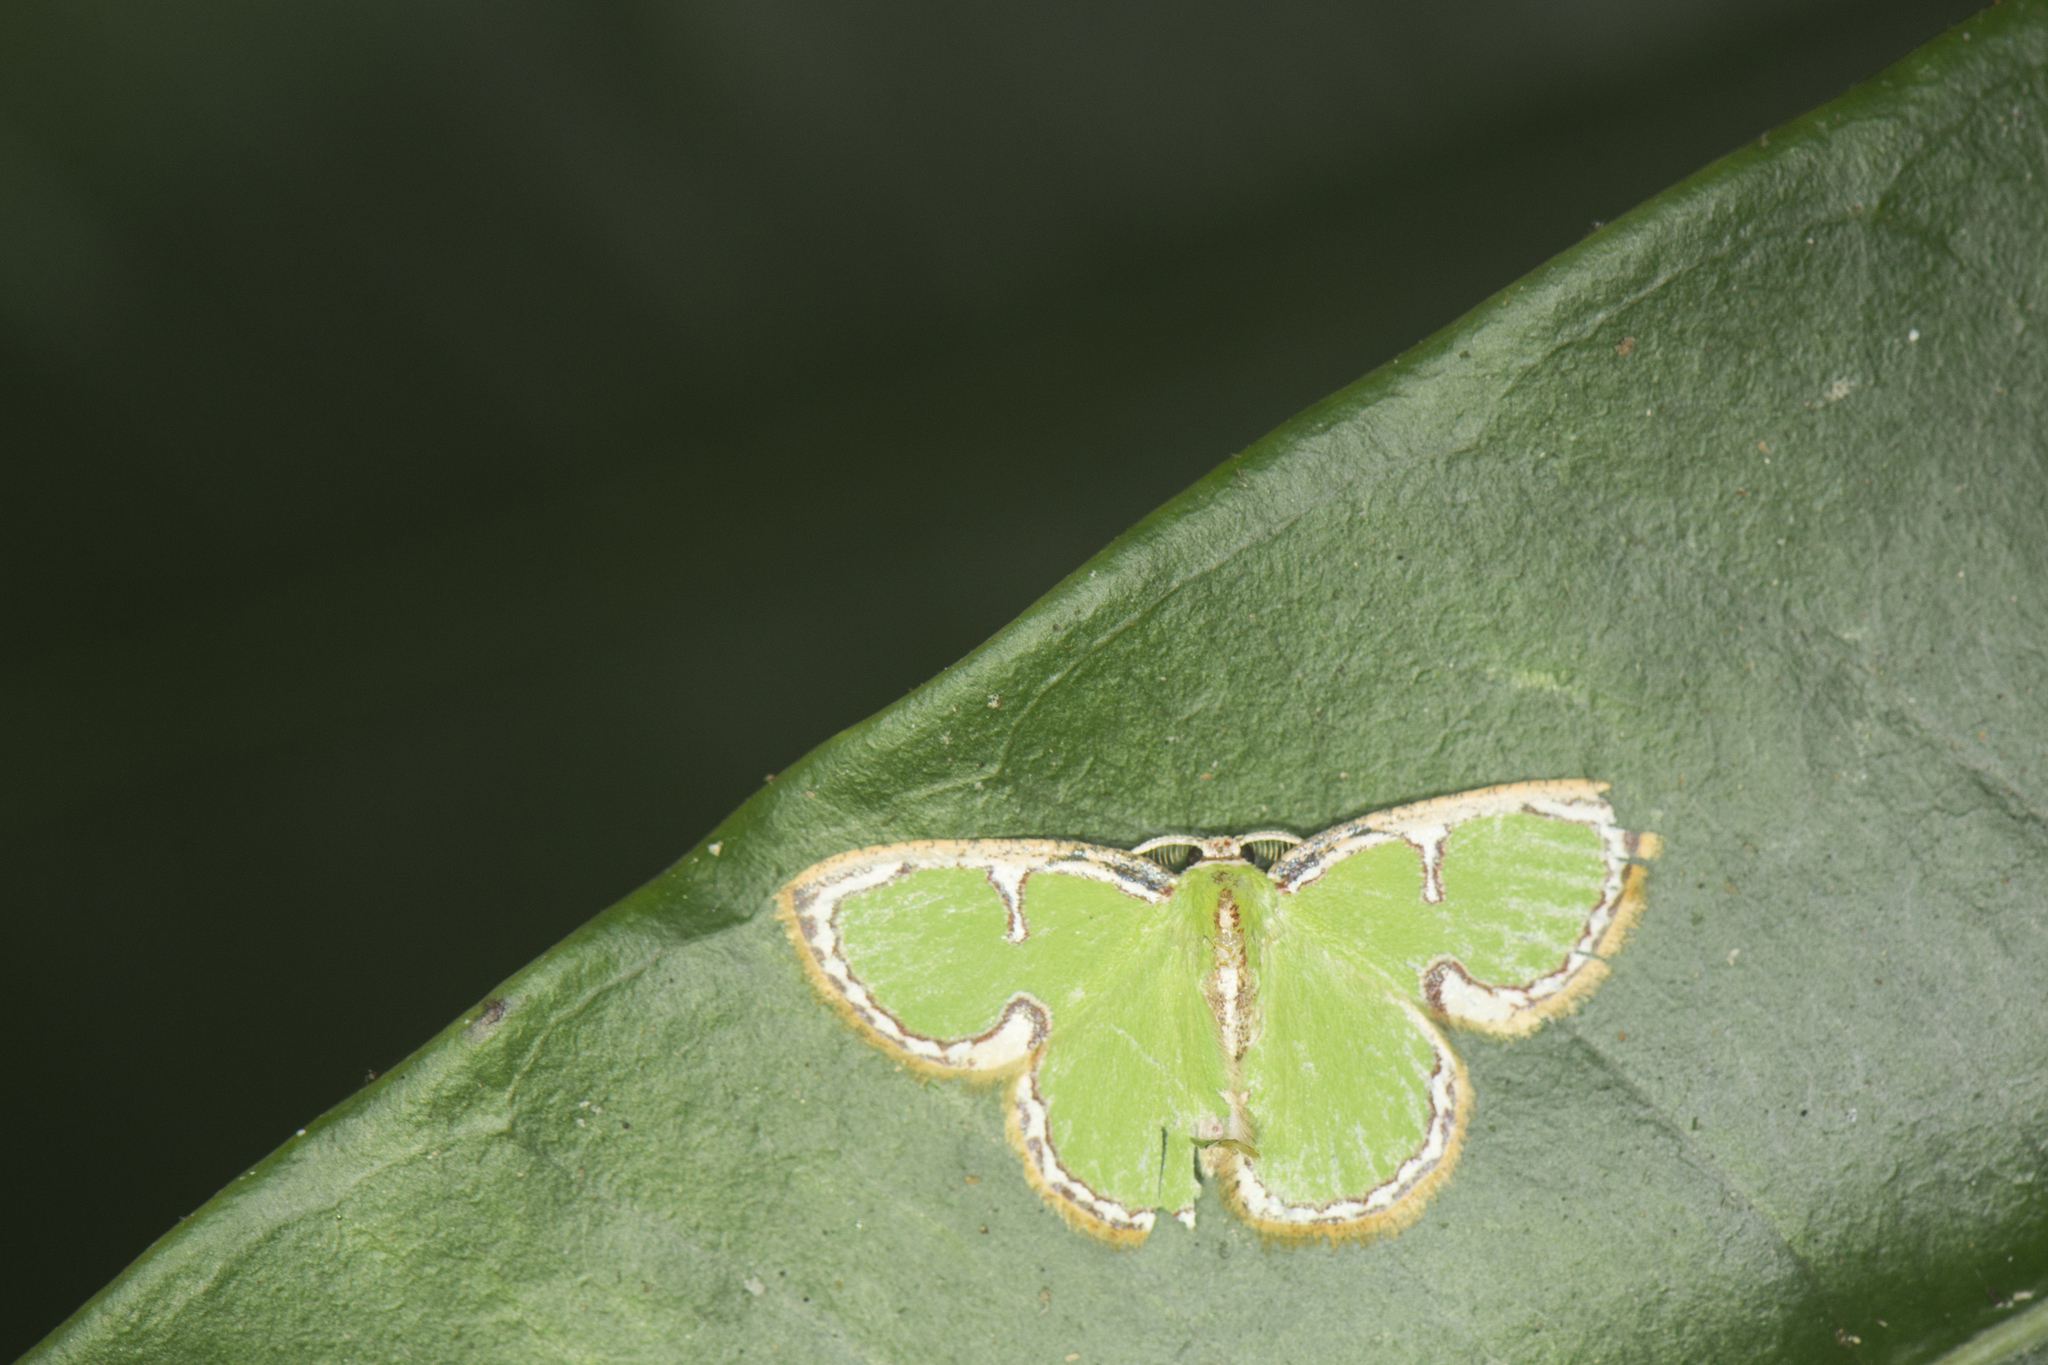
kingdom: Animalia
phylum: Arthropoda
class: Insecta
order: Lepidoptera
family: Geometridae
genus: Comostola
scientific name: Comostola cedilla
